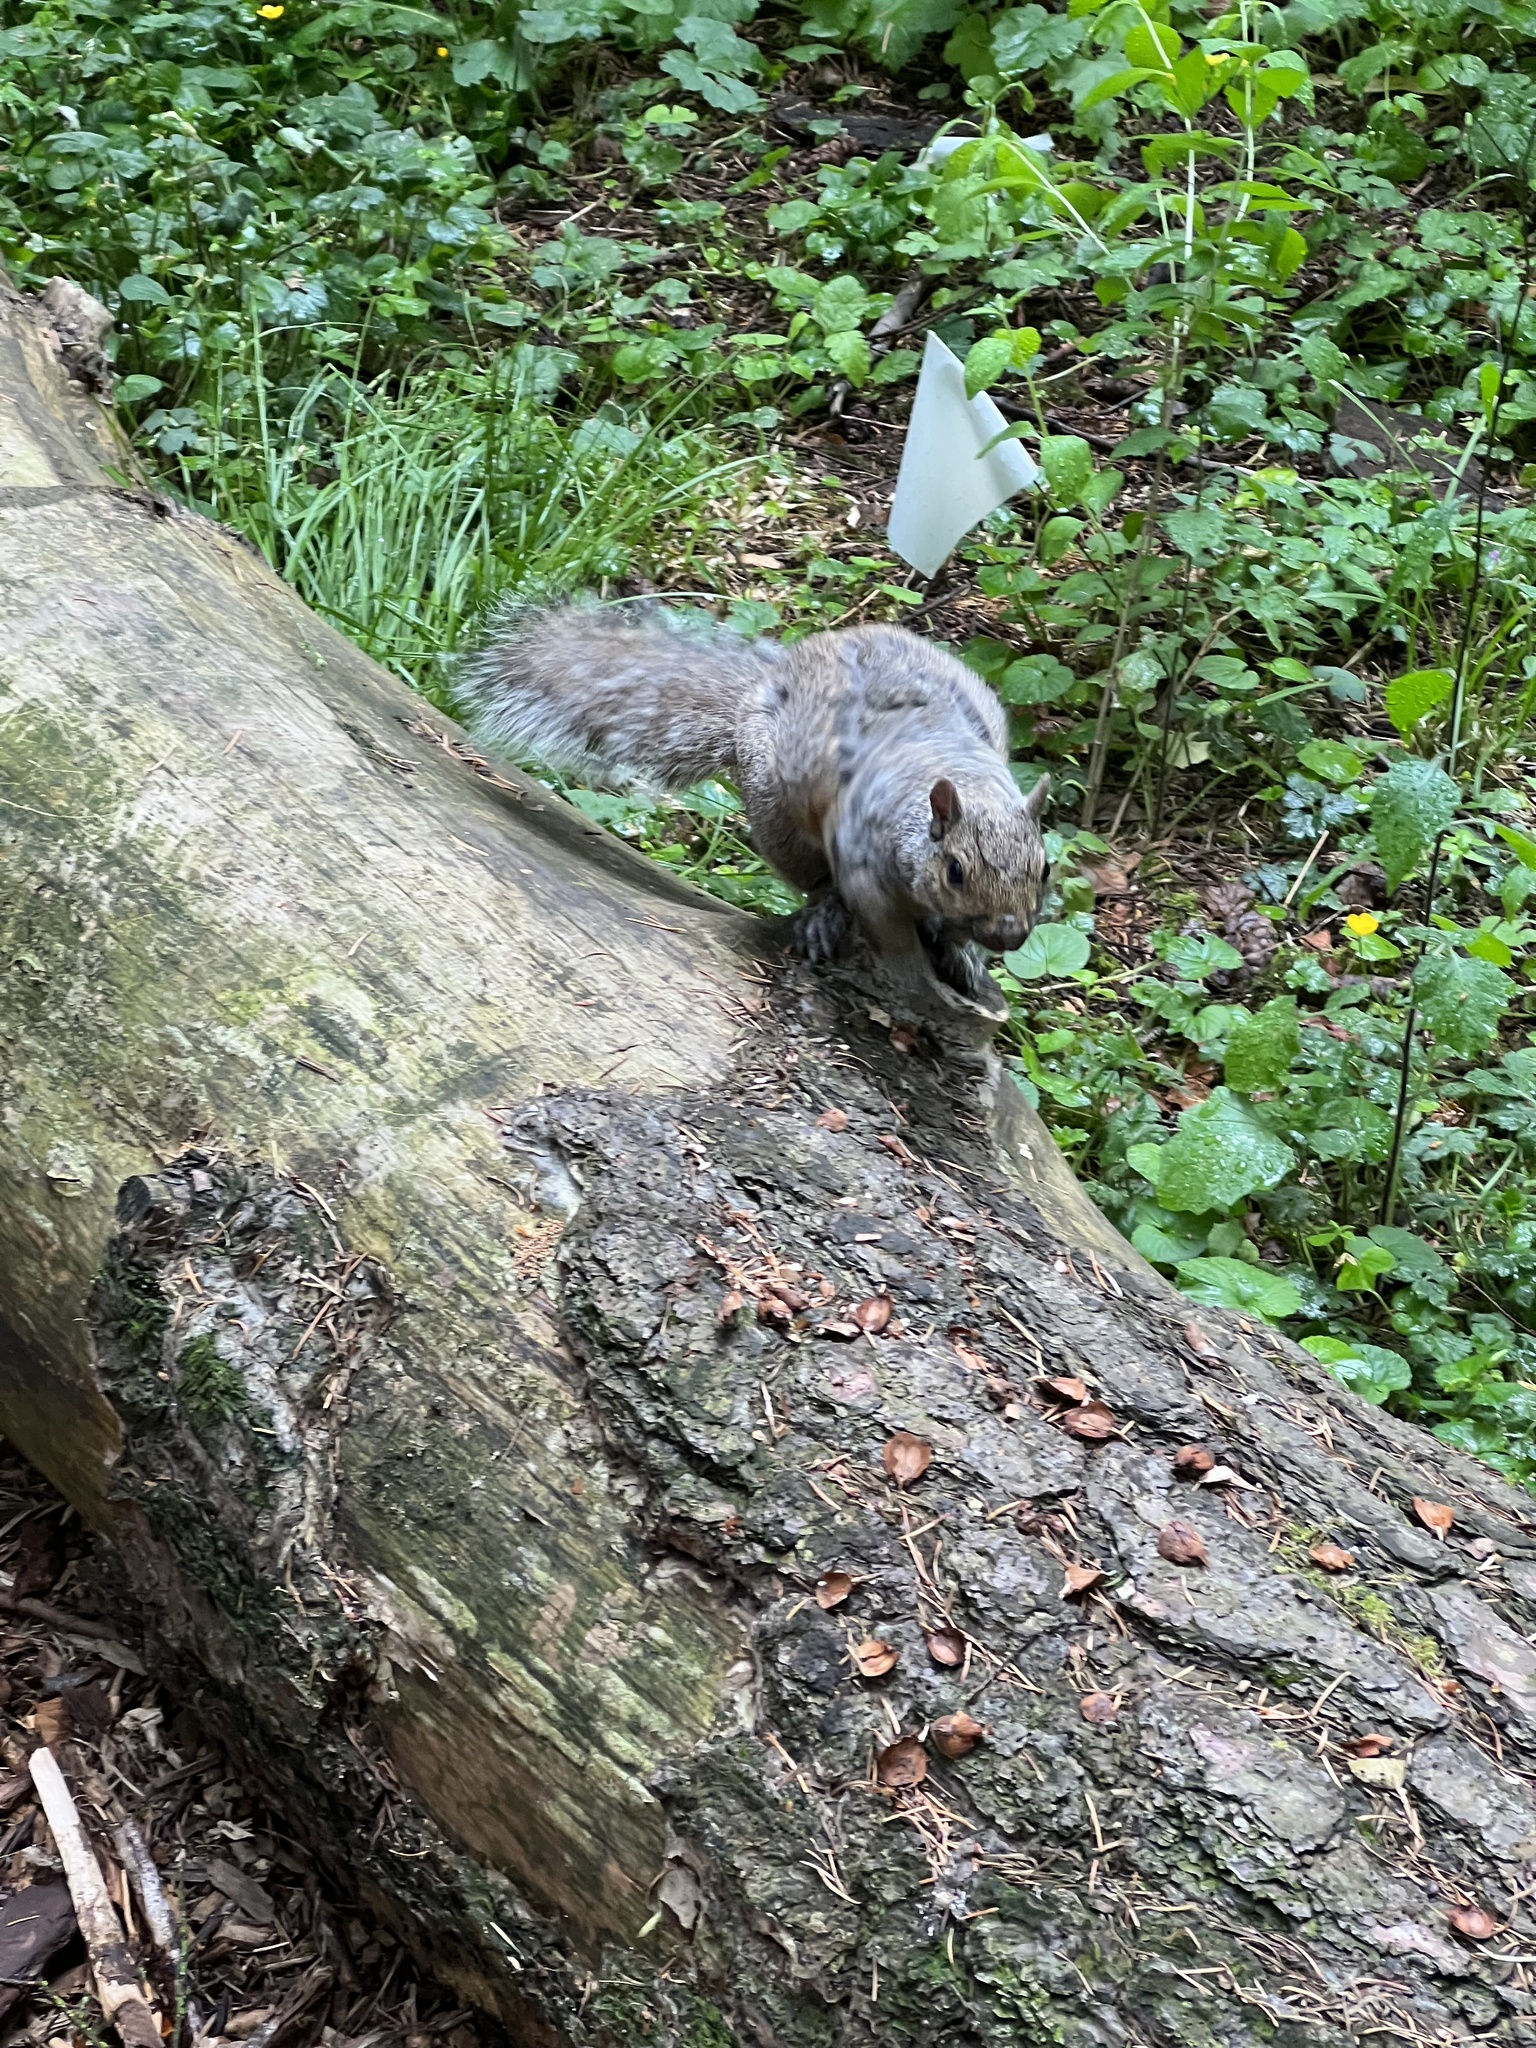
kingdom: Animalia
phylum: Chordata
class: Mammalia
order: Rodentia
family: Sciuridae
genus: Sciurus
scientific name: Sciurus carolinensis
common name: Eastern gray squirrel
